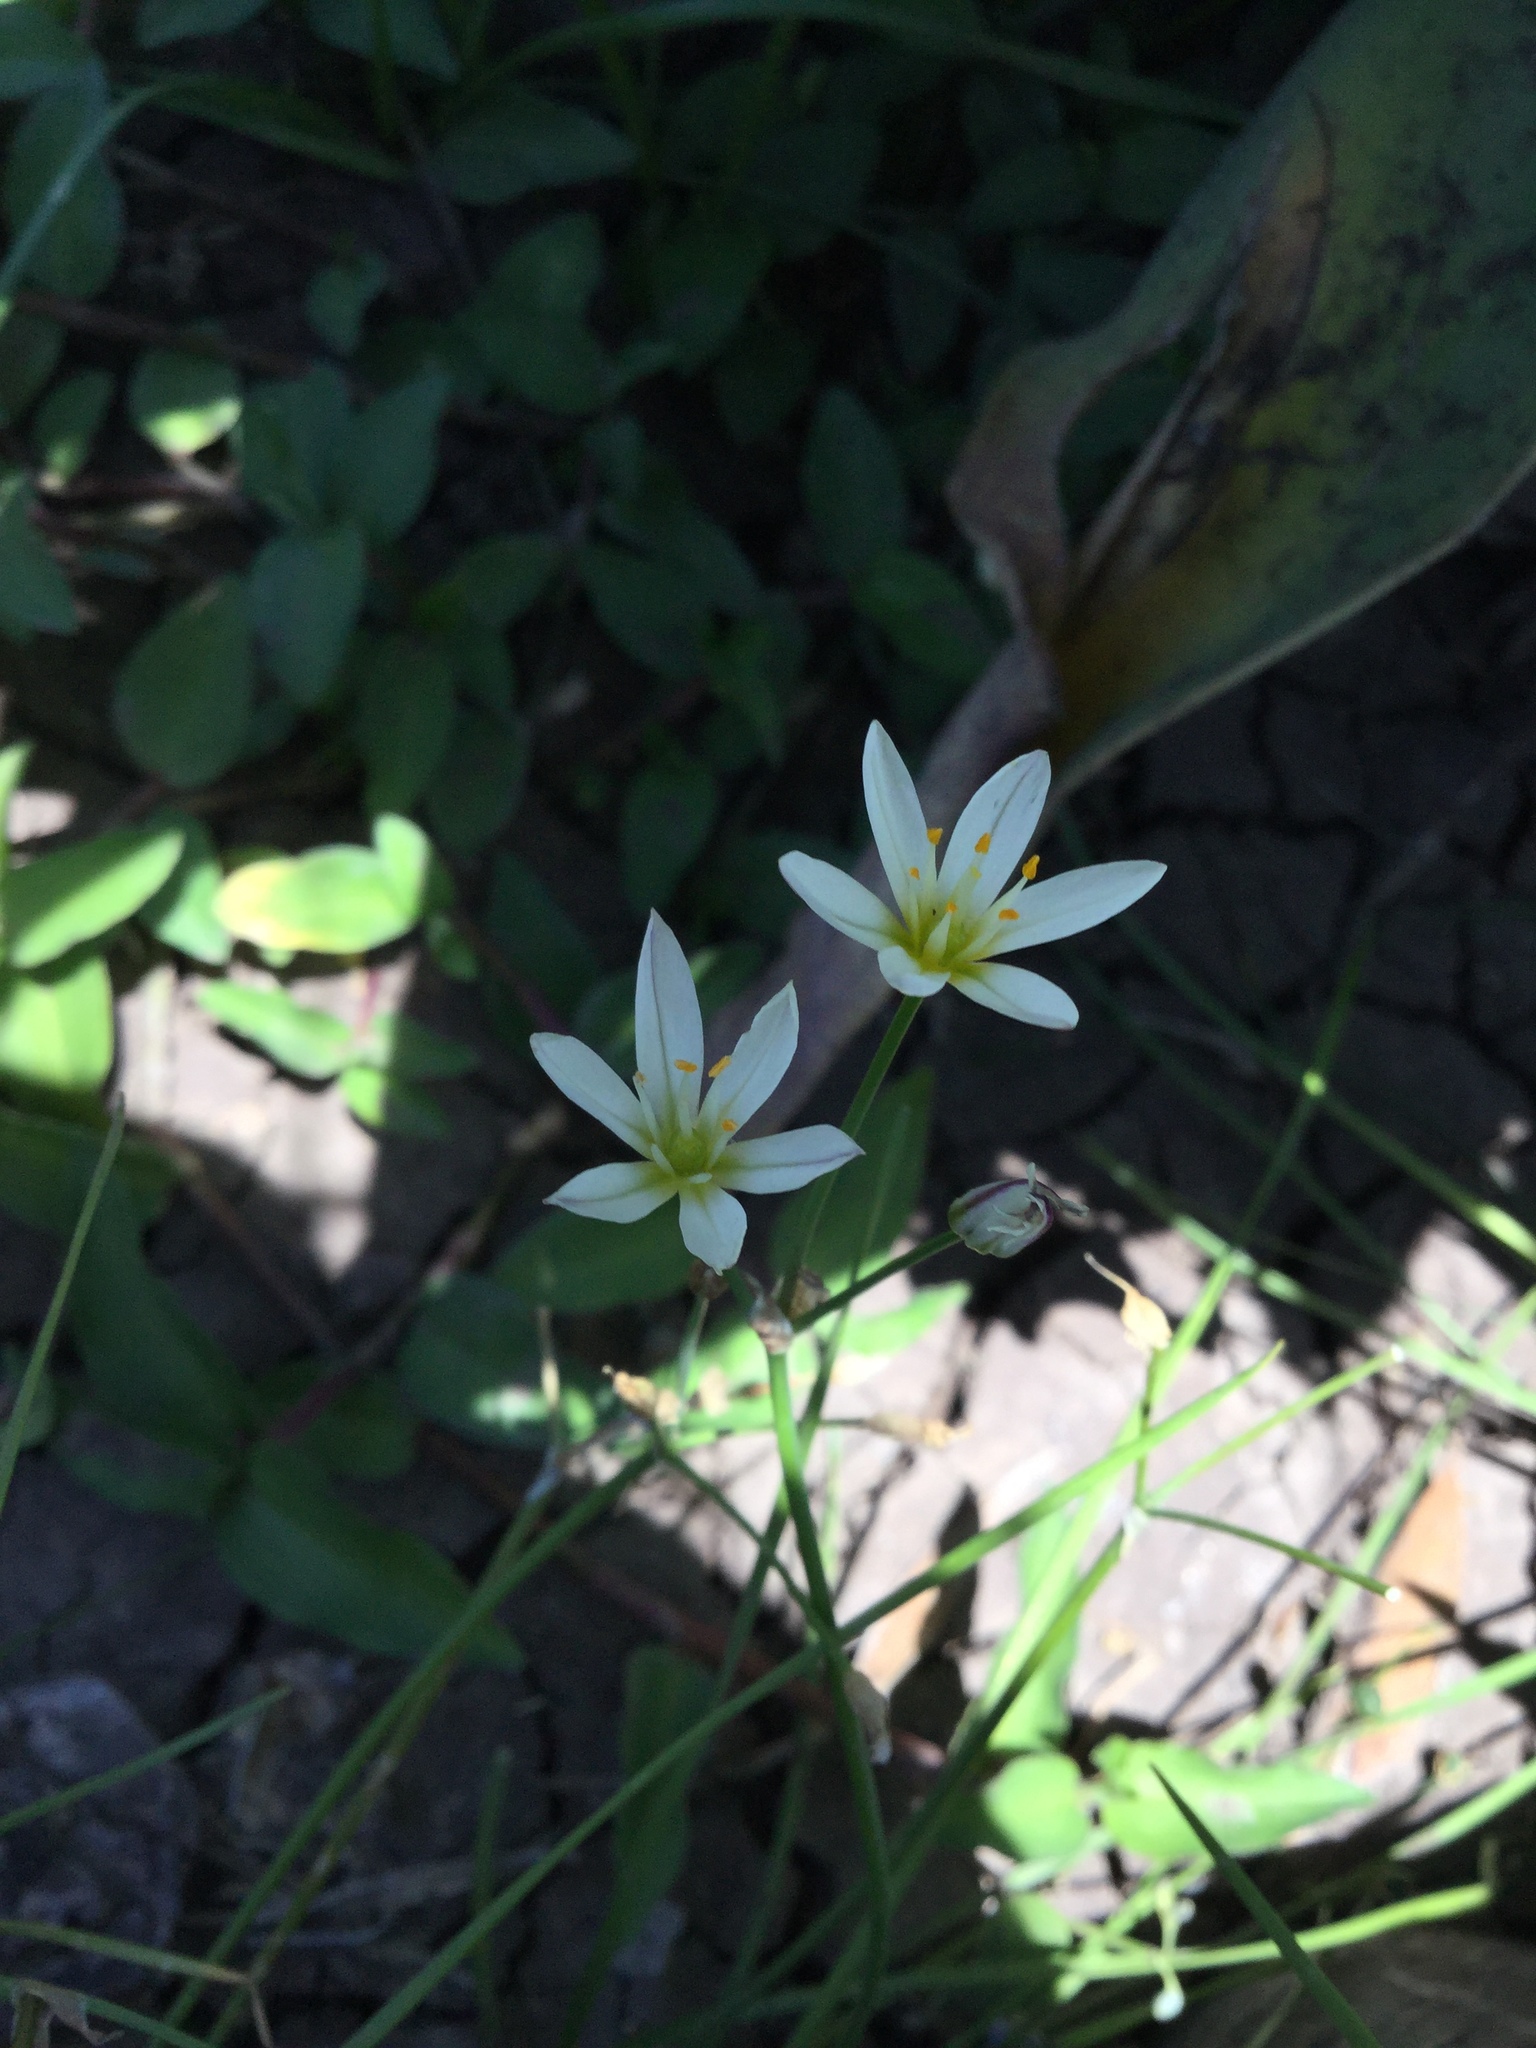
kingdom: Plantae
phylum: Tracheophyta
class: Liliopsida
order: Asparagales
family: Amaryllidaceae
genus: Nothoscordum
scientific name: Nothoscordum bivalve
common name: Crow-poison
